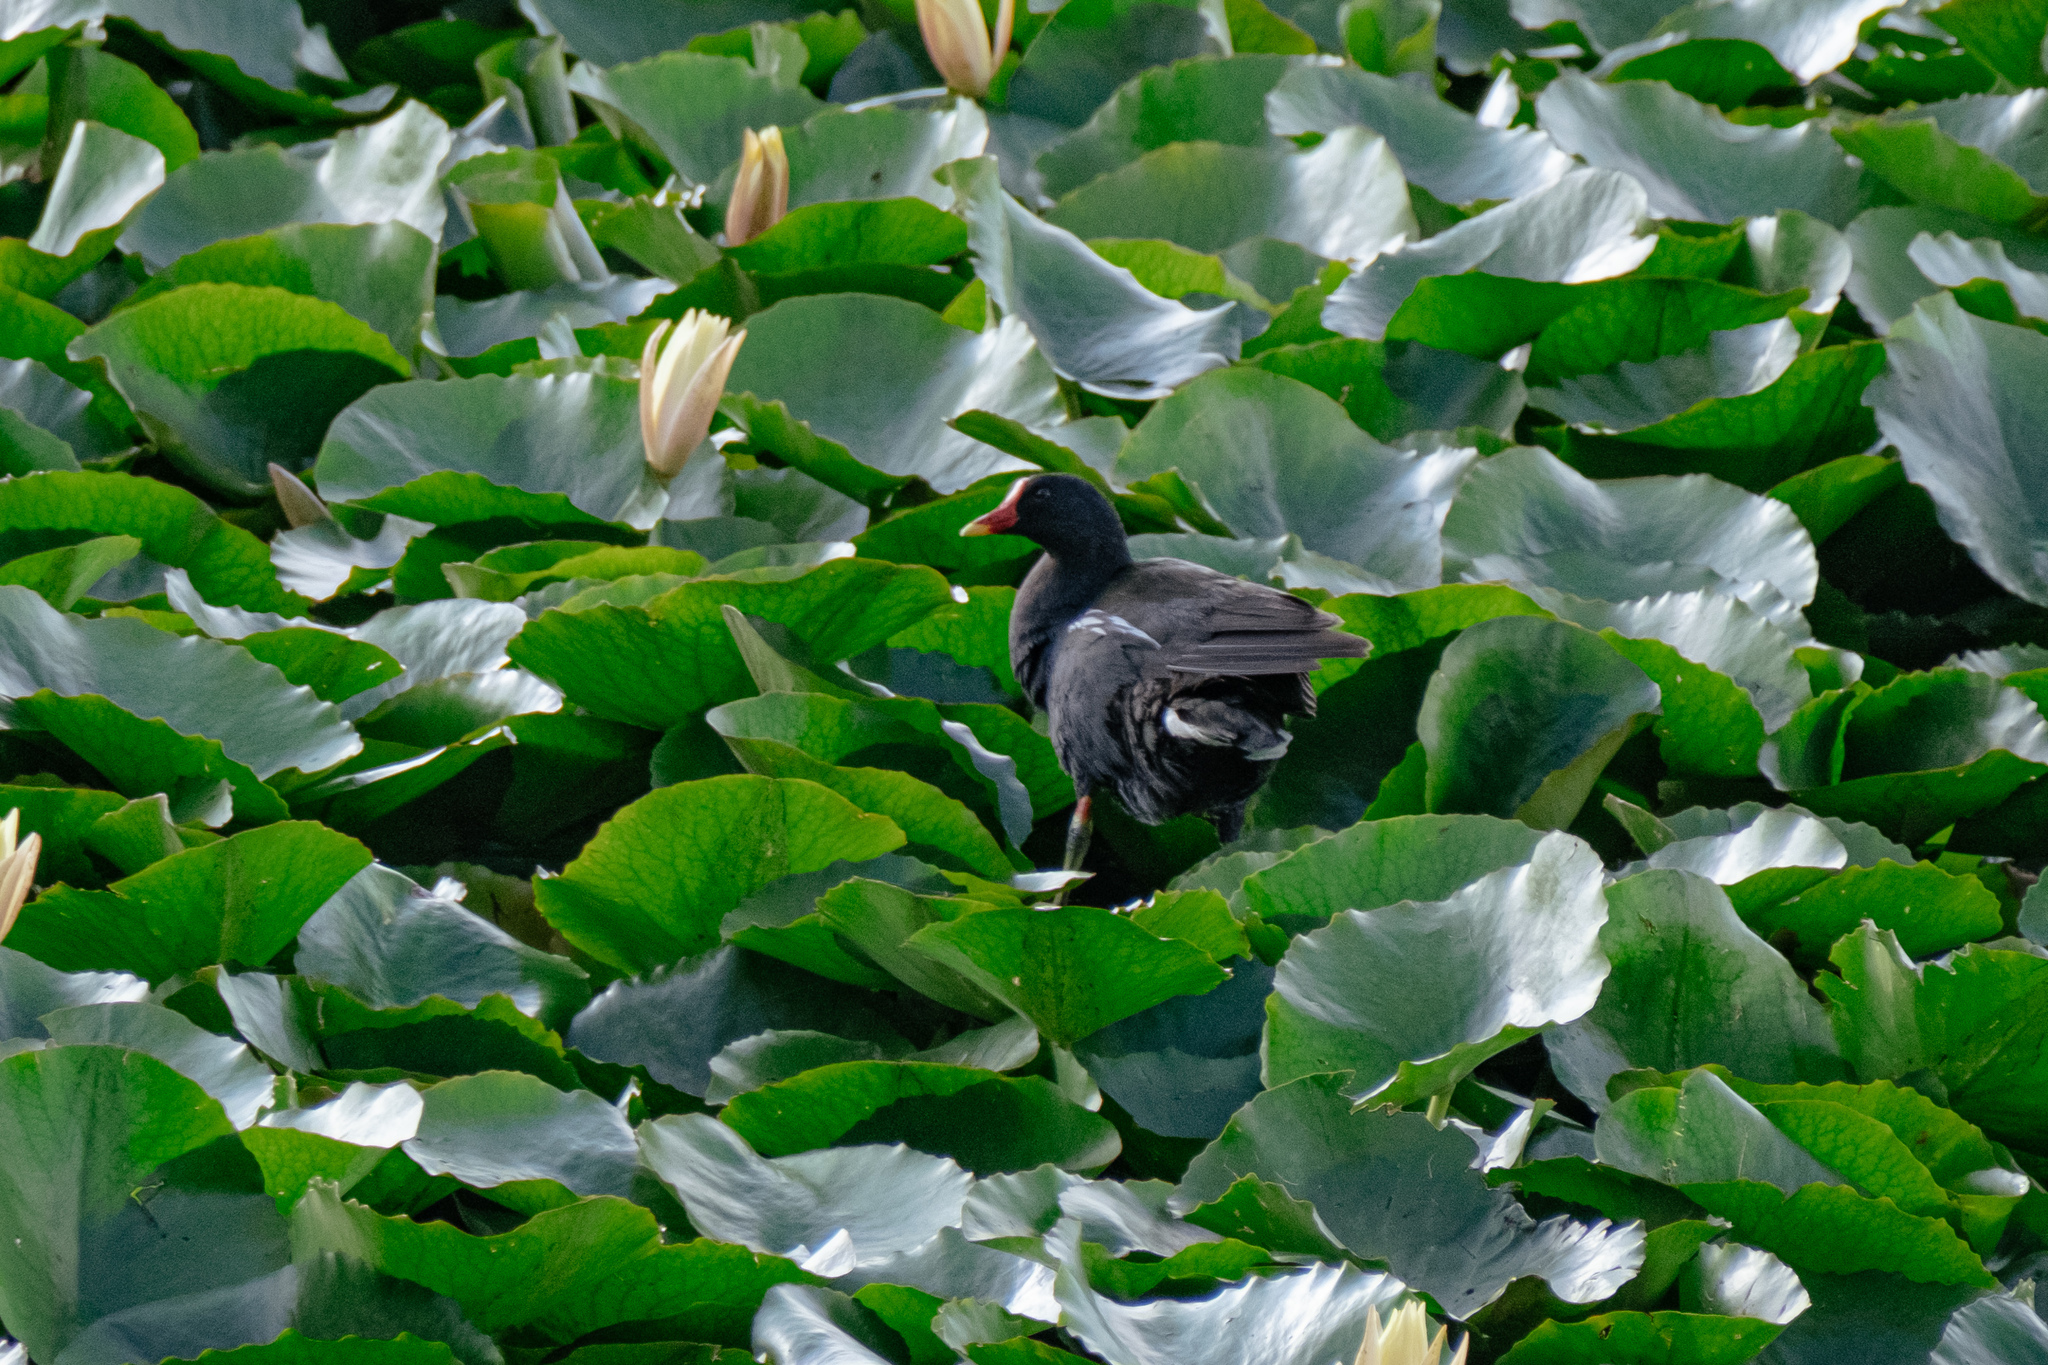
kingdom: Animalia
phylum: Chordata
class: Aves
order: Gruiformes
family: Rallidae
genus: Gallinula
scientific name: Gallinula chloropus
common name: Common moorhen
